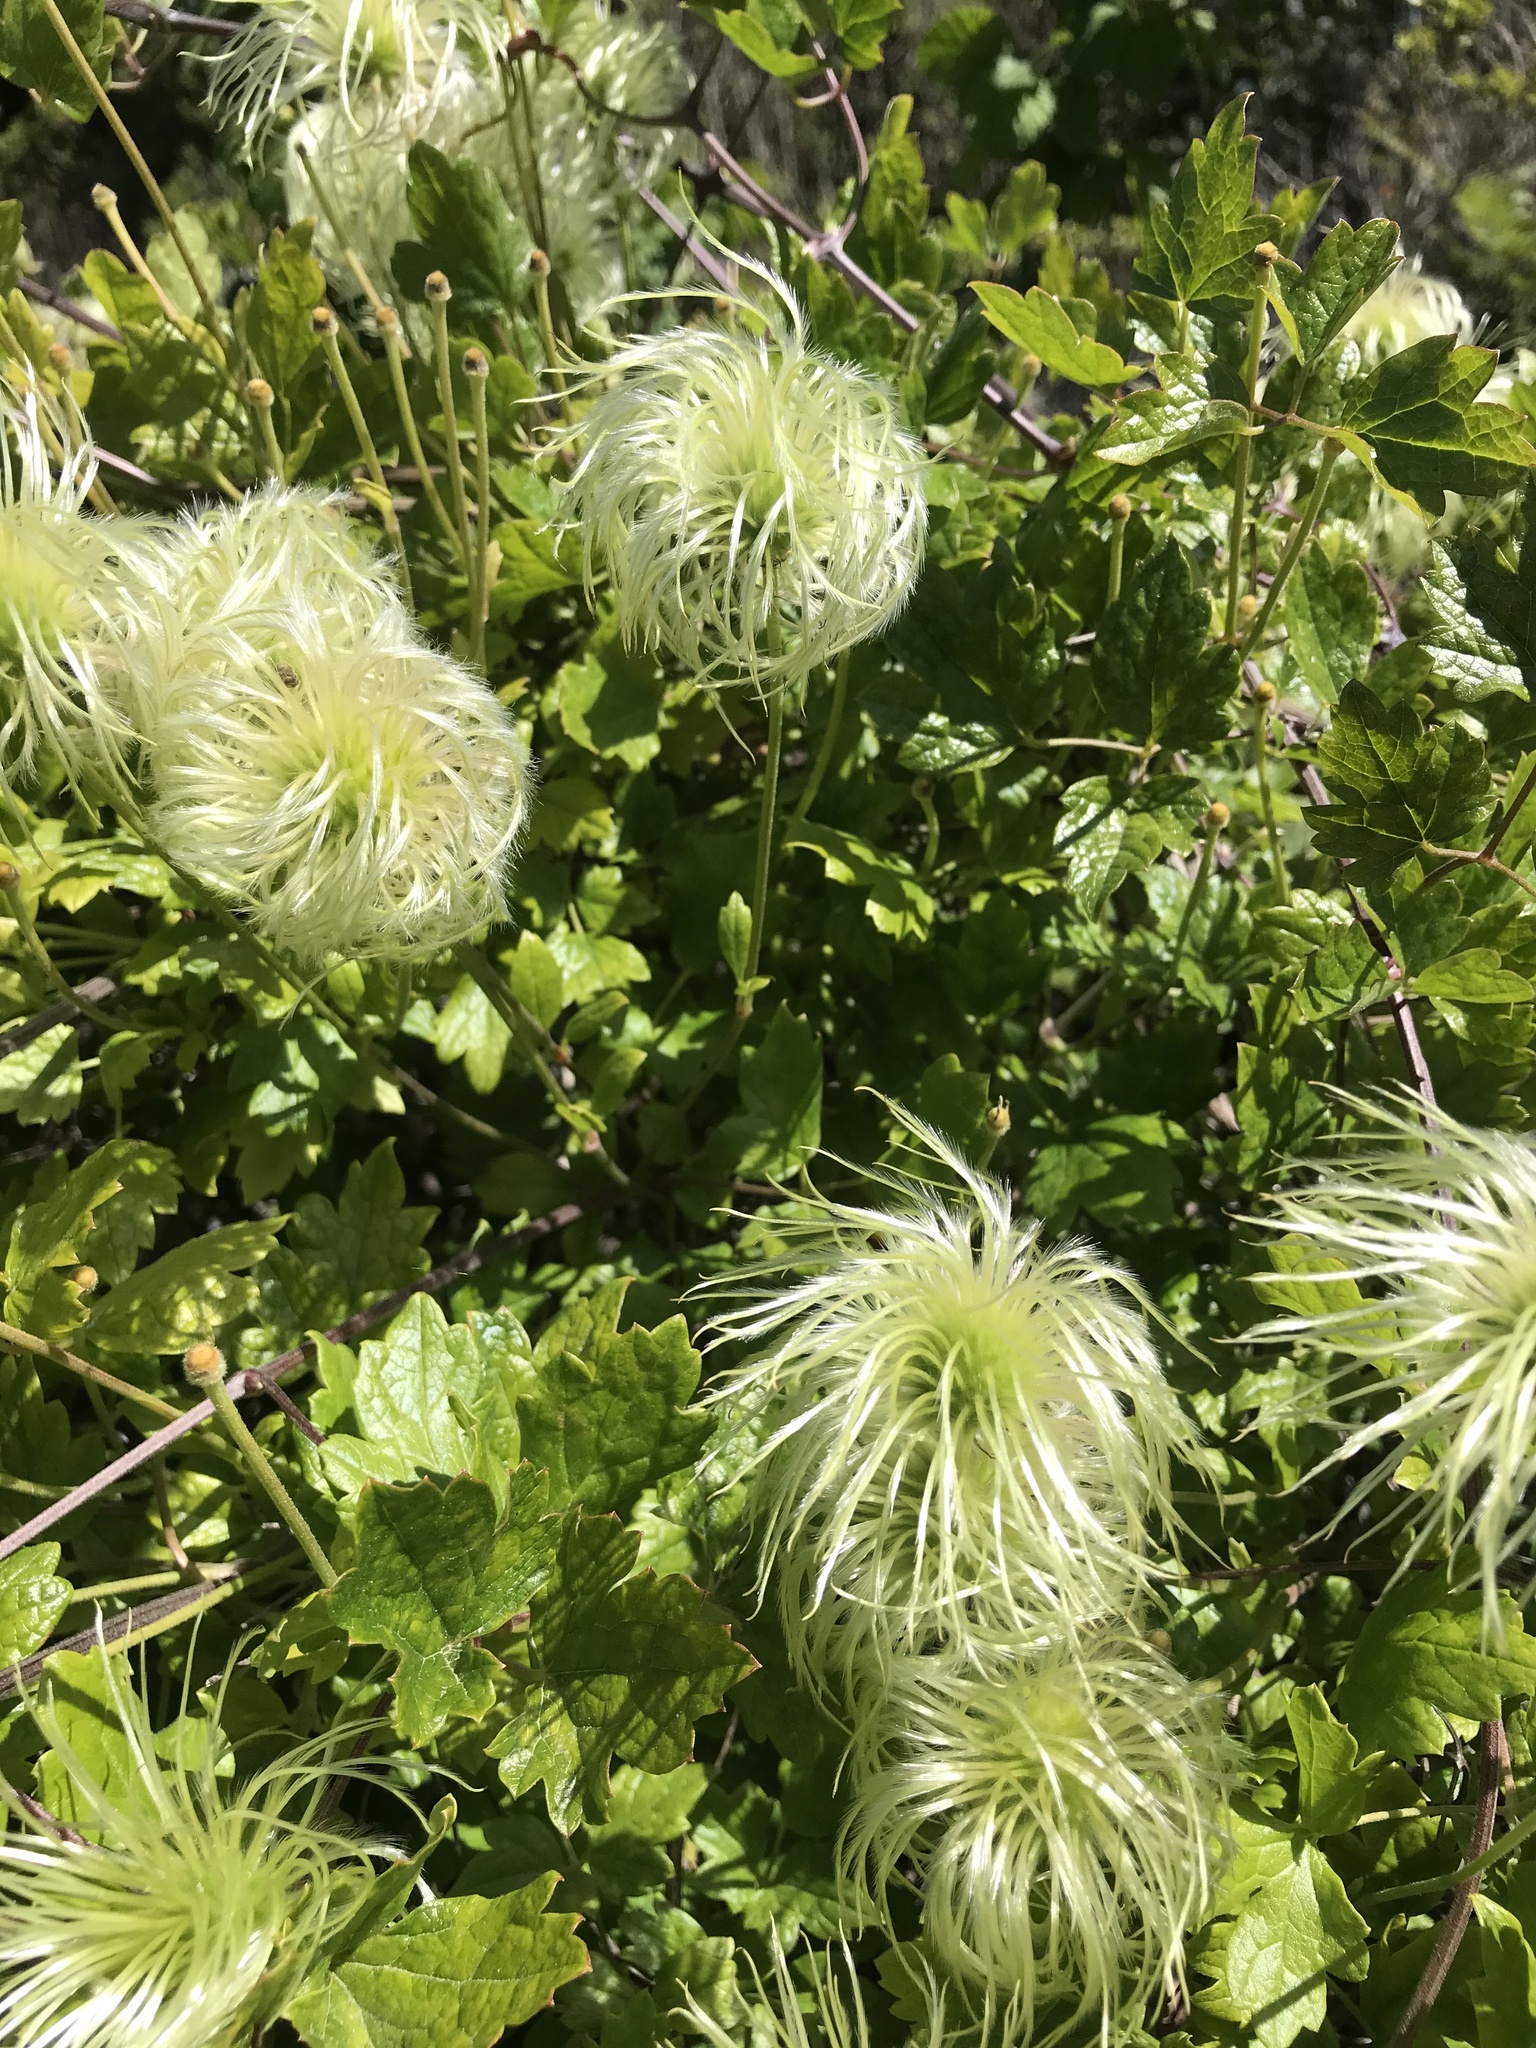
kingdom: Plantae
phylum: Tracheophyta
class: Magnoliopsida
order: Ranunculales
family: Ranunculaceae
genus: Clematis
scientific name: Clematis lasiantha
